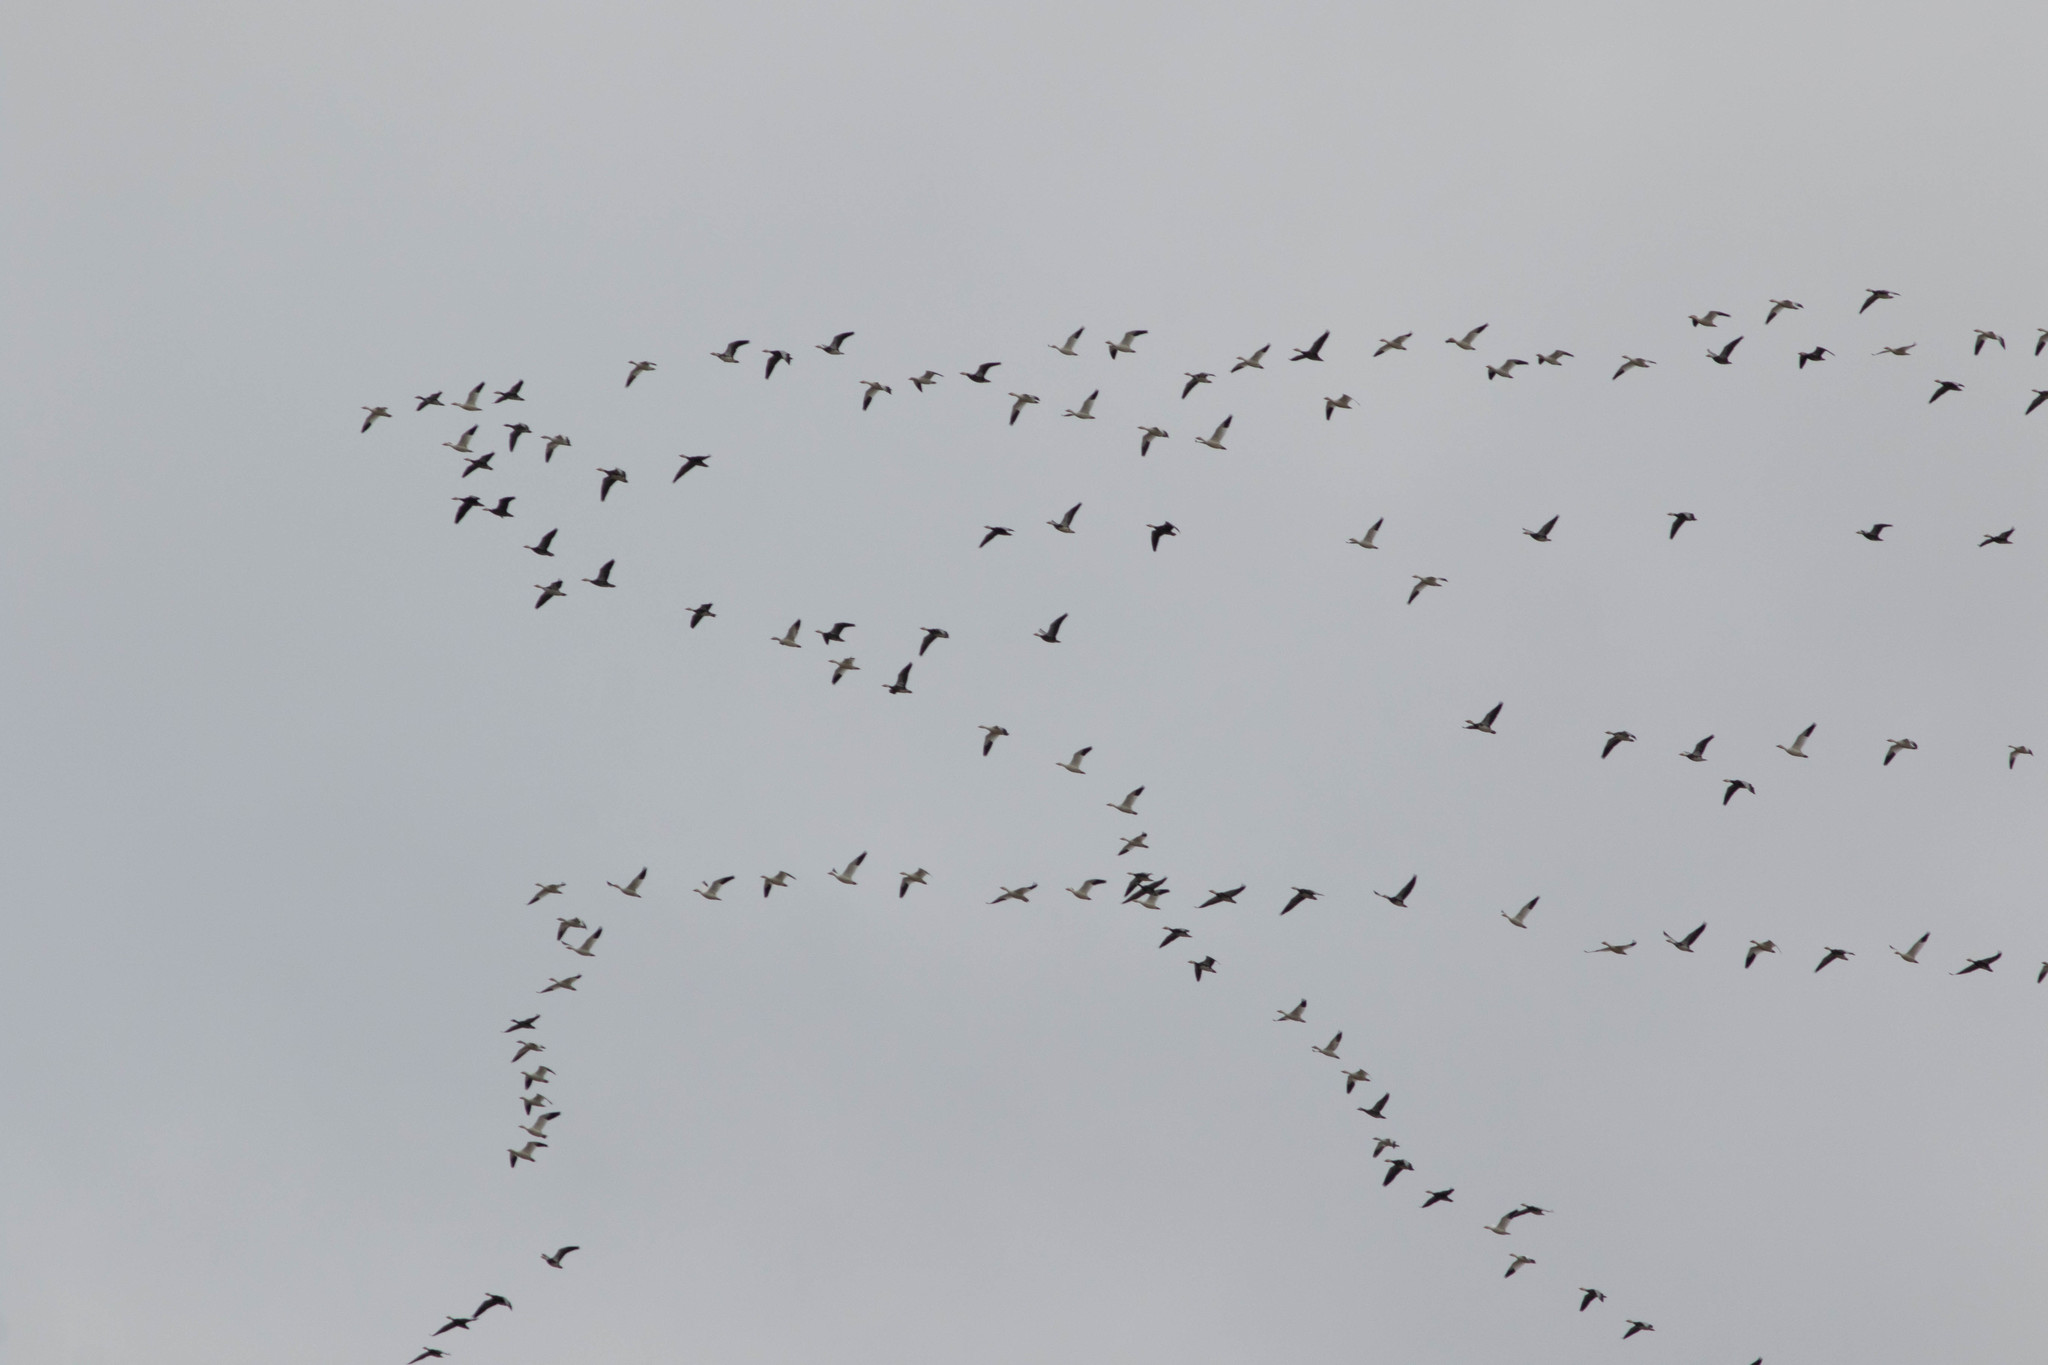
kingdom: Animalia
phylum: Chordata
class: Aves
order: Anseriformes
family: Anatidae
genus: Anser
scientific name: Anser caerulescens
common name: Snow goose
